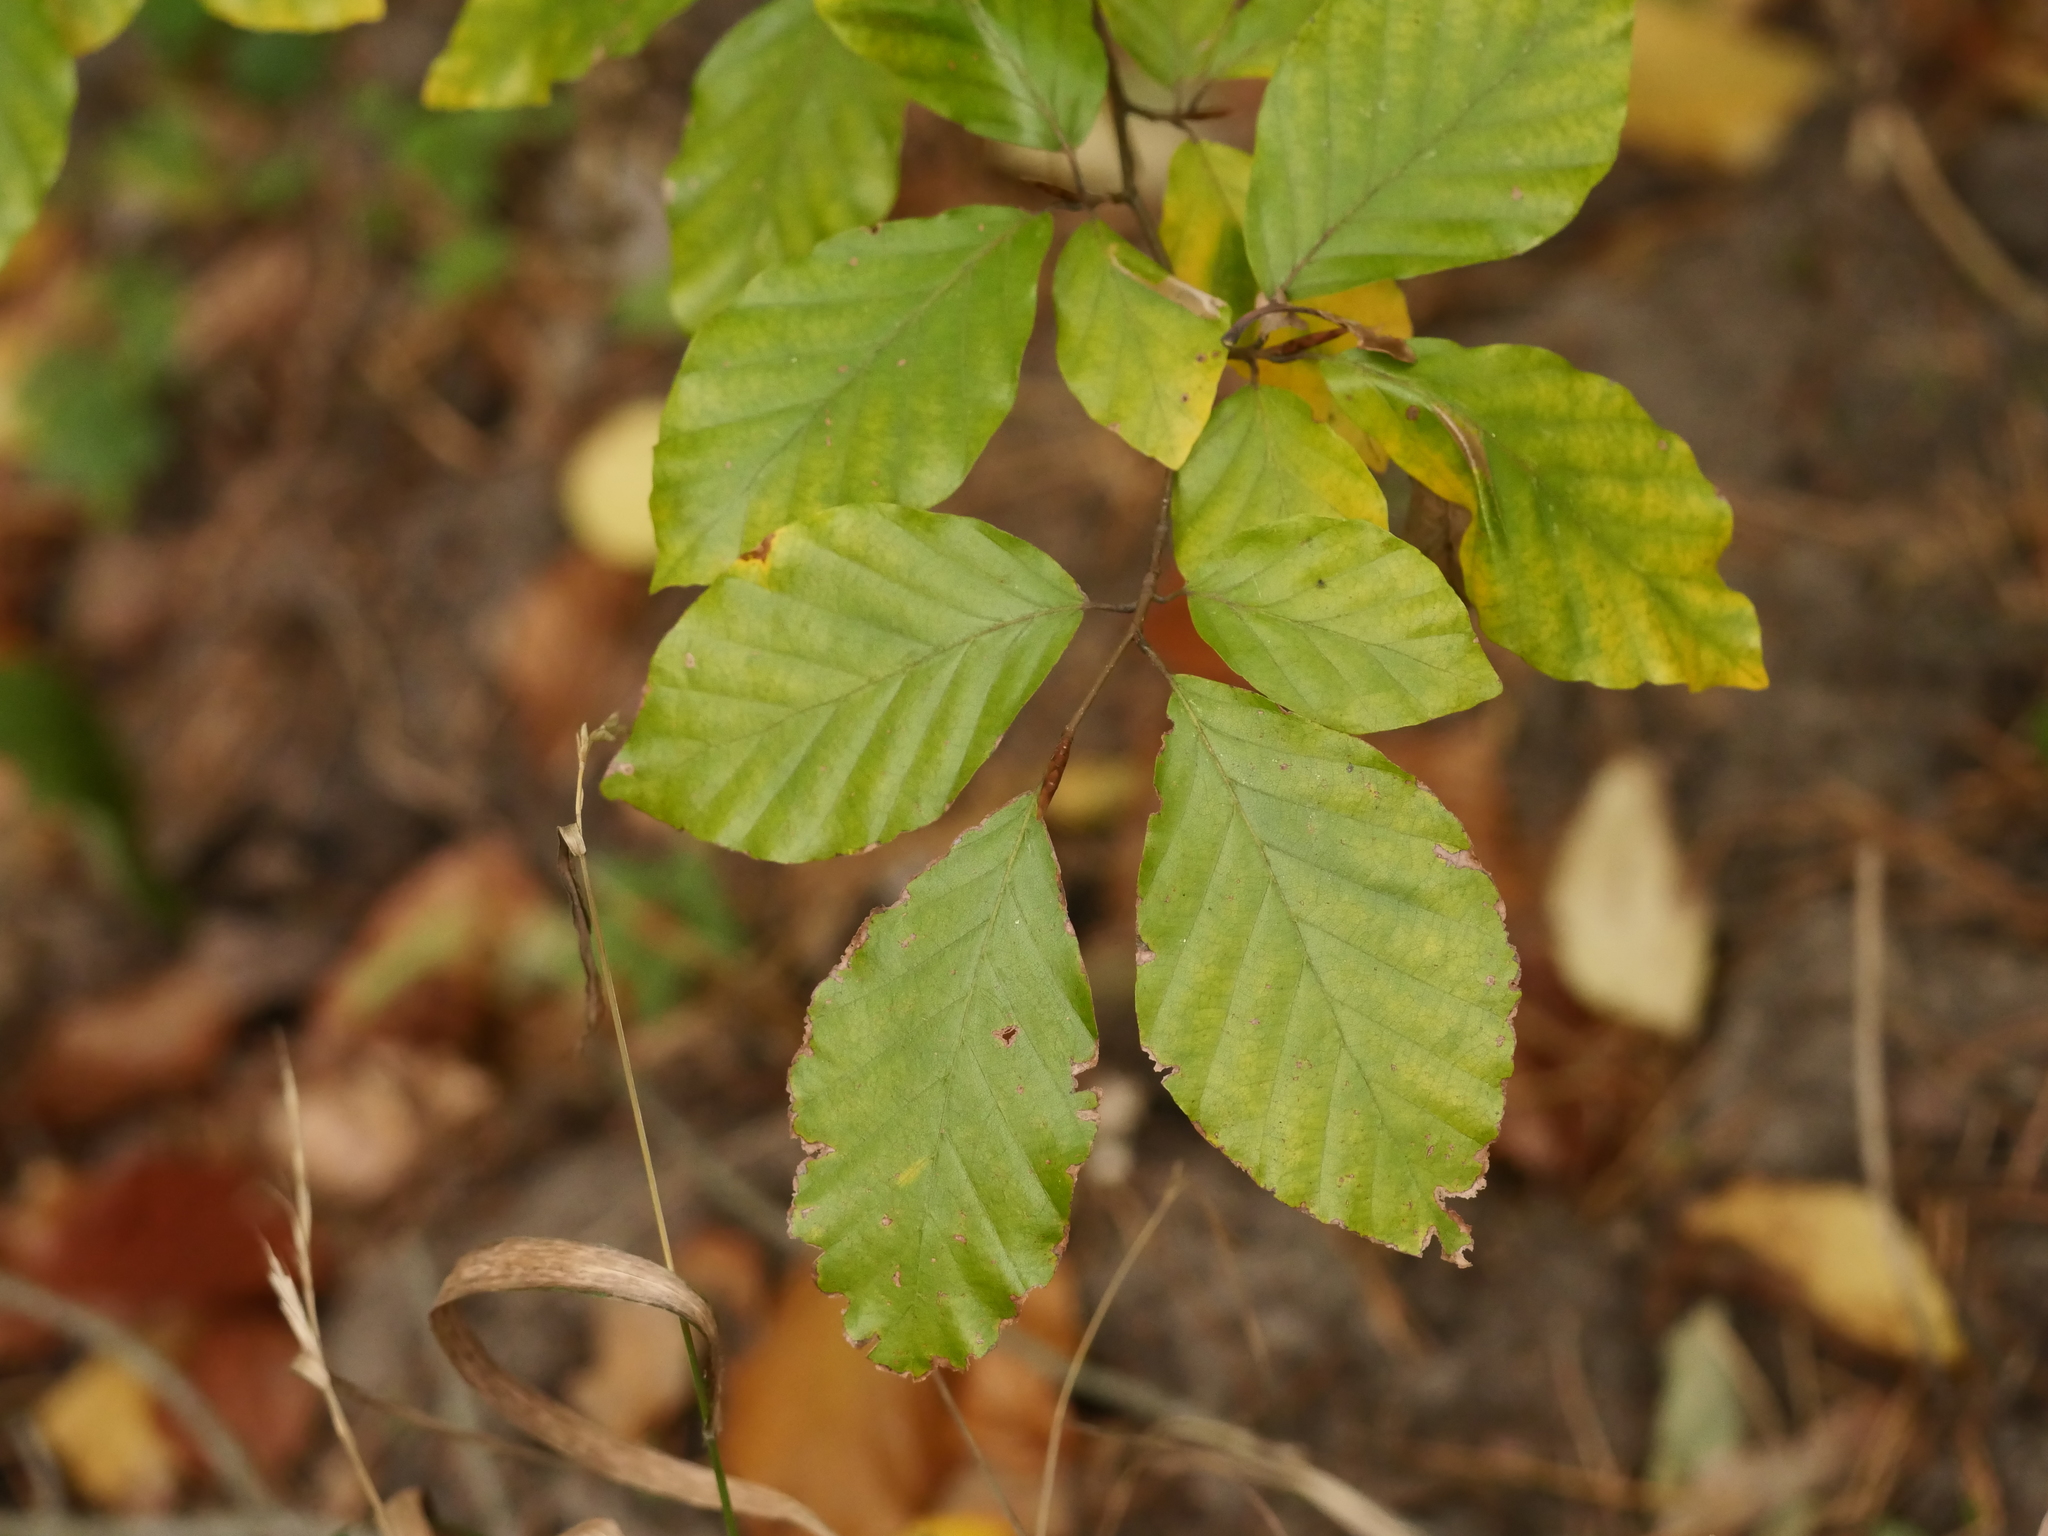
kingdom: Plantae
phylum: Tracheophyta
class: Magnoliopsida
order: Fagales
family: Fagaceae
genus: Fagus
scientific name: Fagus sylvatica
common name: Beech
